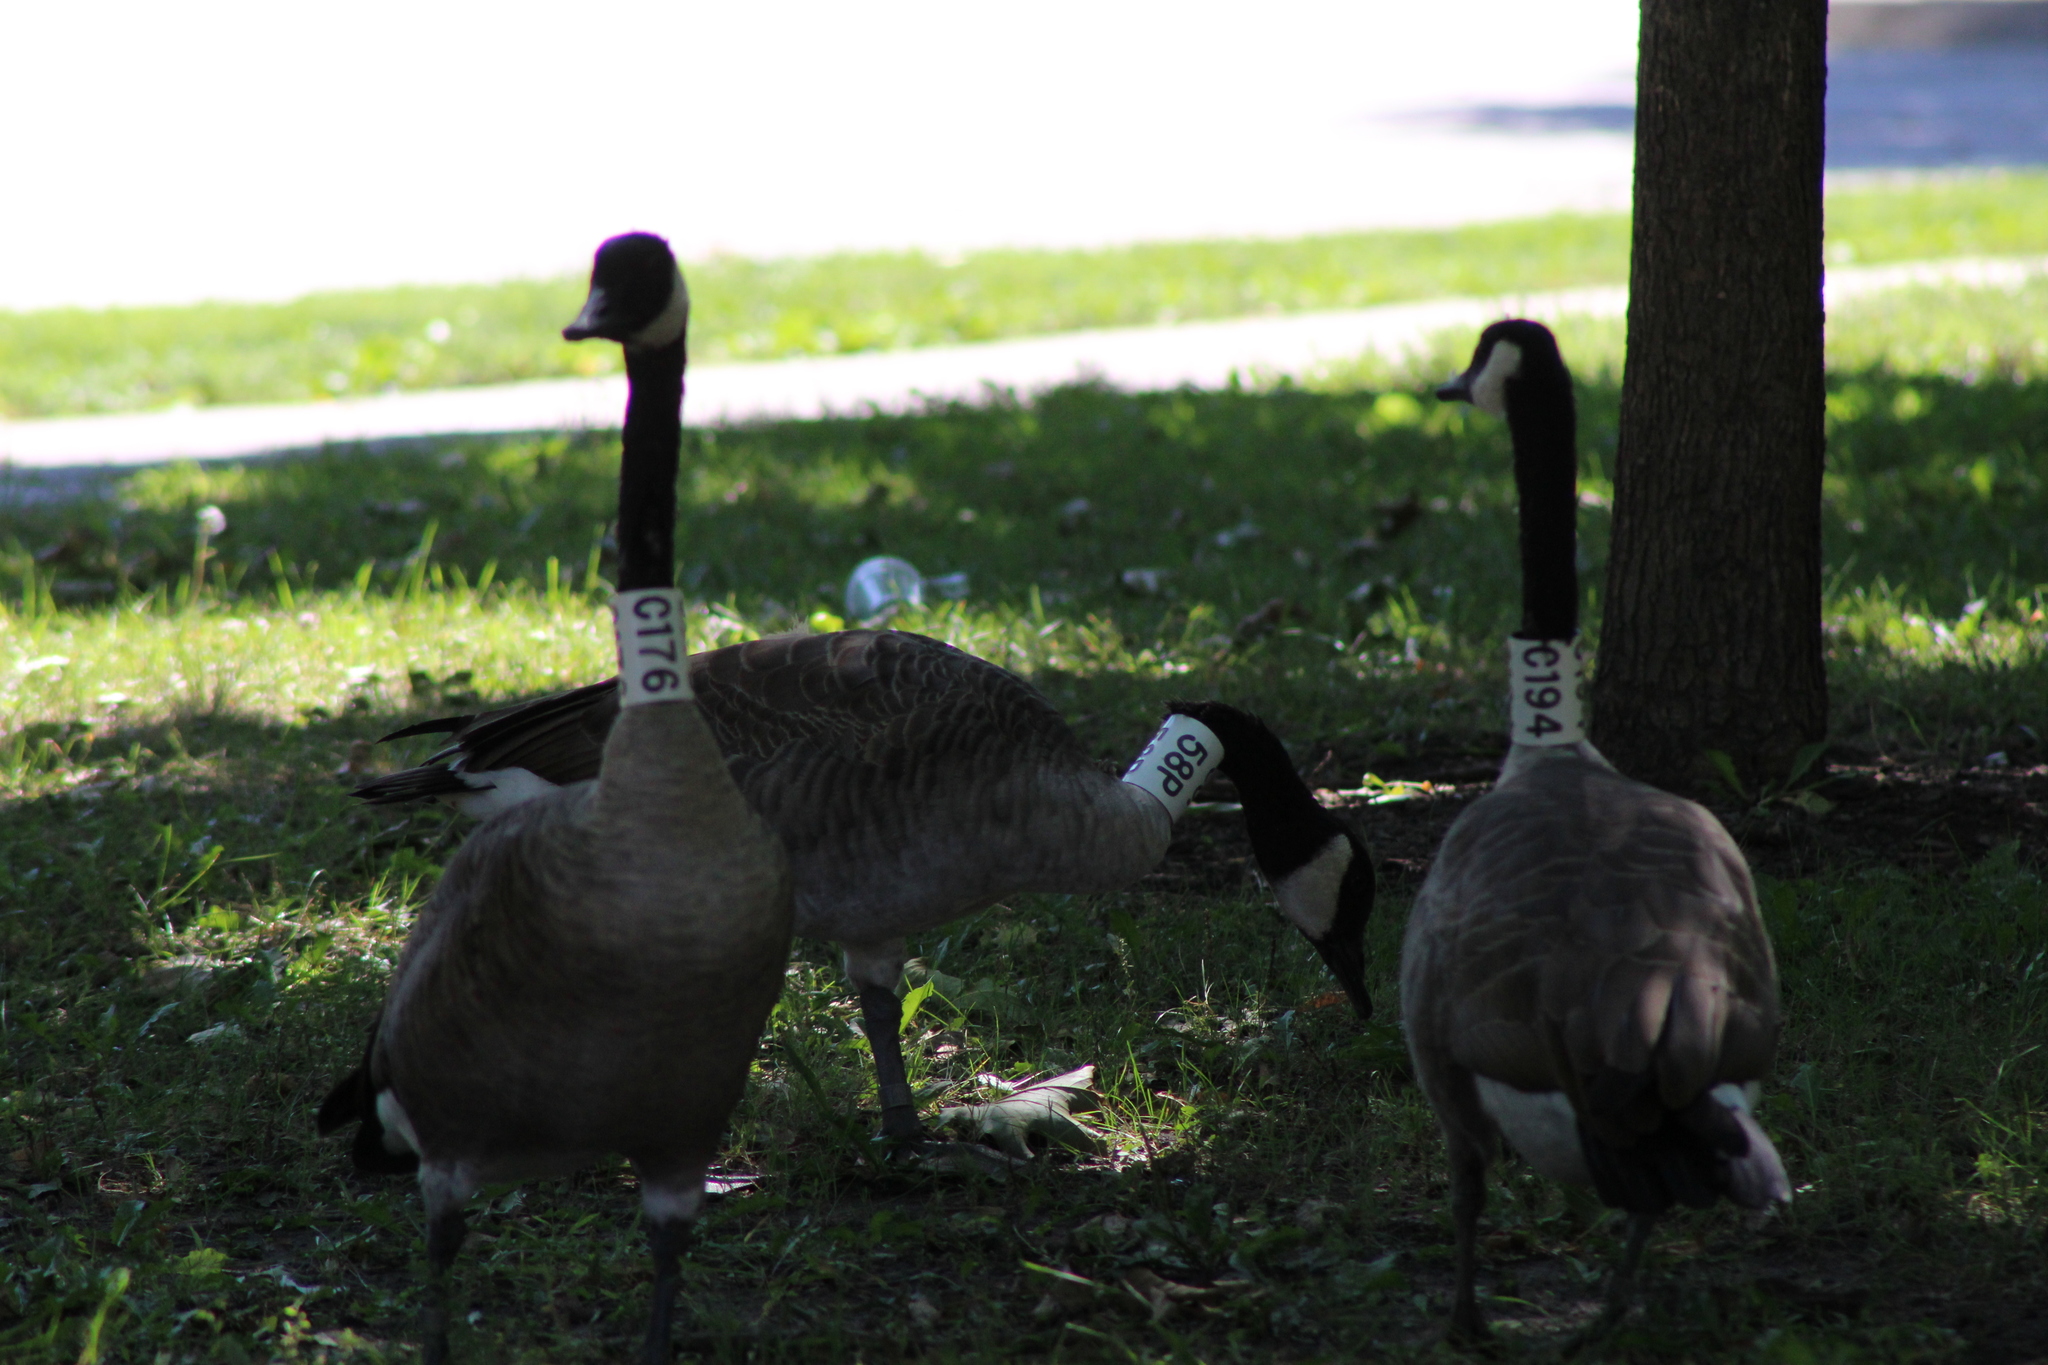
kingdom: Animalia
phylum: Chordata
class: Aves
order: Anseriformes
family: Anatidae
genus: Branta
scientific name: Branta canadensis
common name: Canada goose
